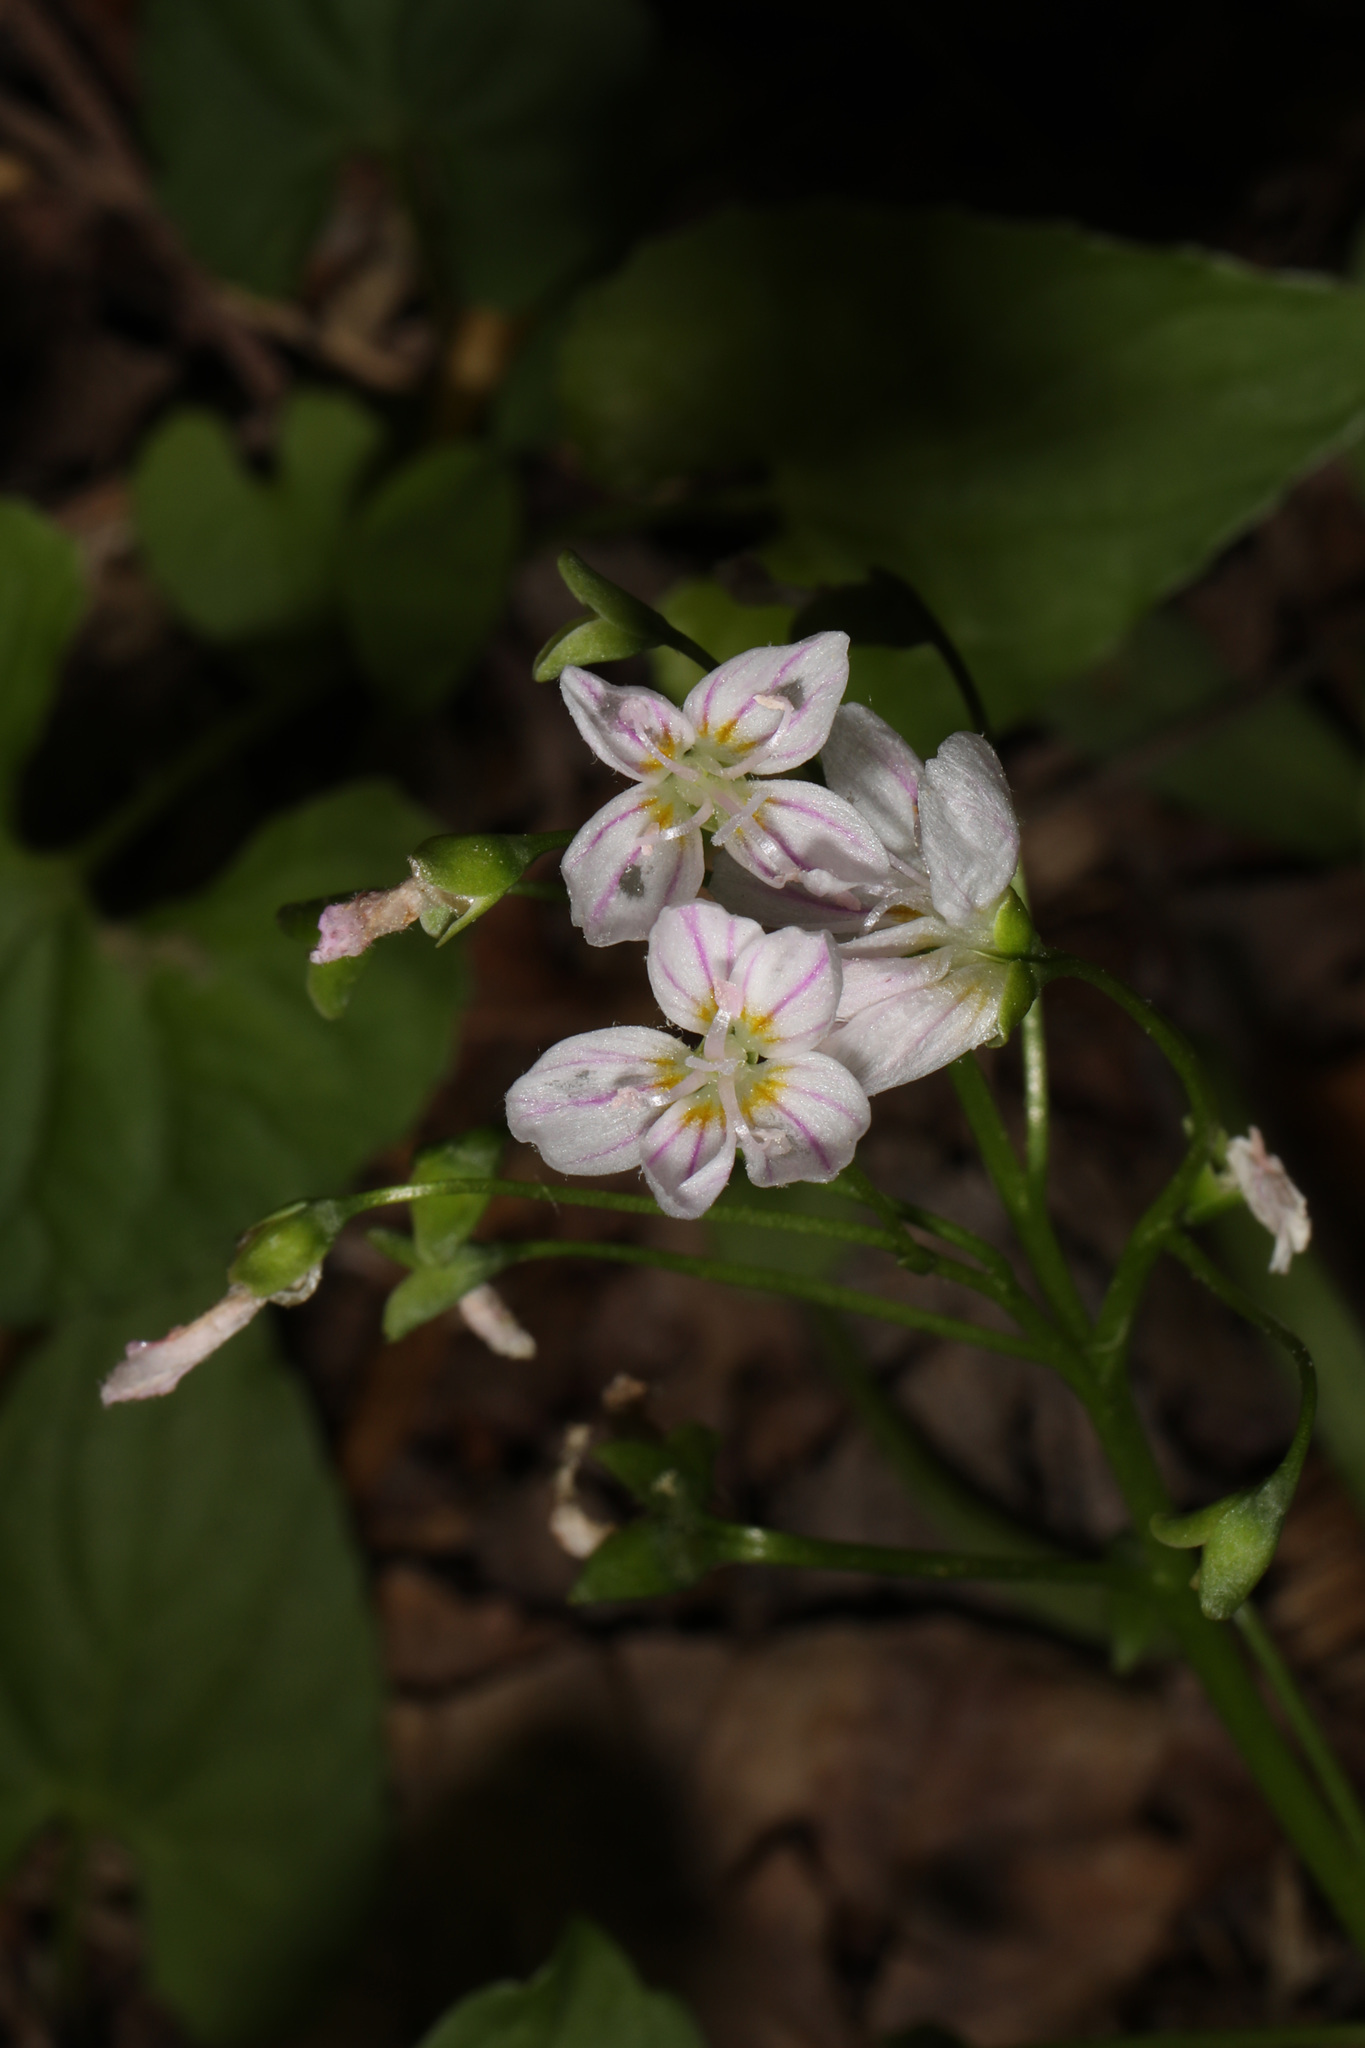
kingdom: Plantae
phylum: Tracheophyta
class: Magnoliopsida
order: Caryophyllales
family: Montiaceae
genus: Claytonia
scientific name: Claytonia virginica
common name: Virginia springbeauty
